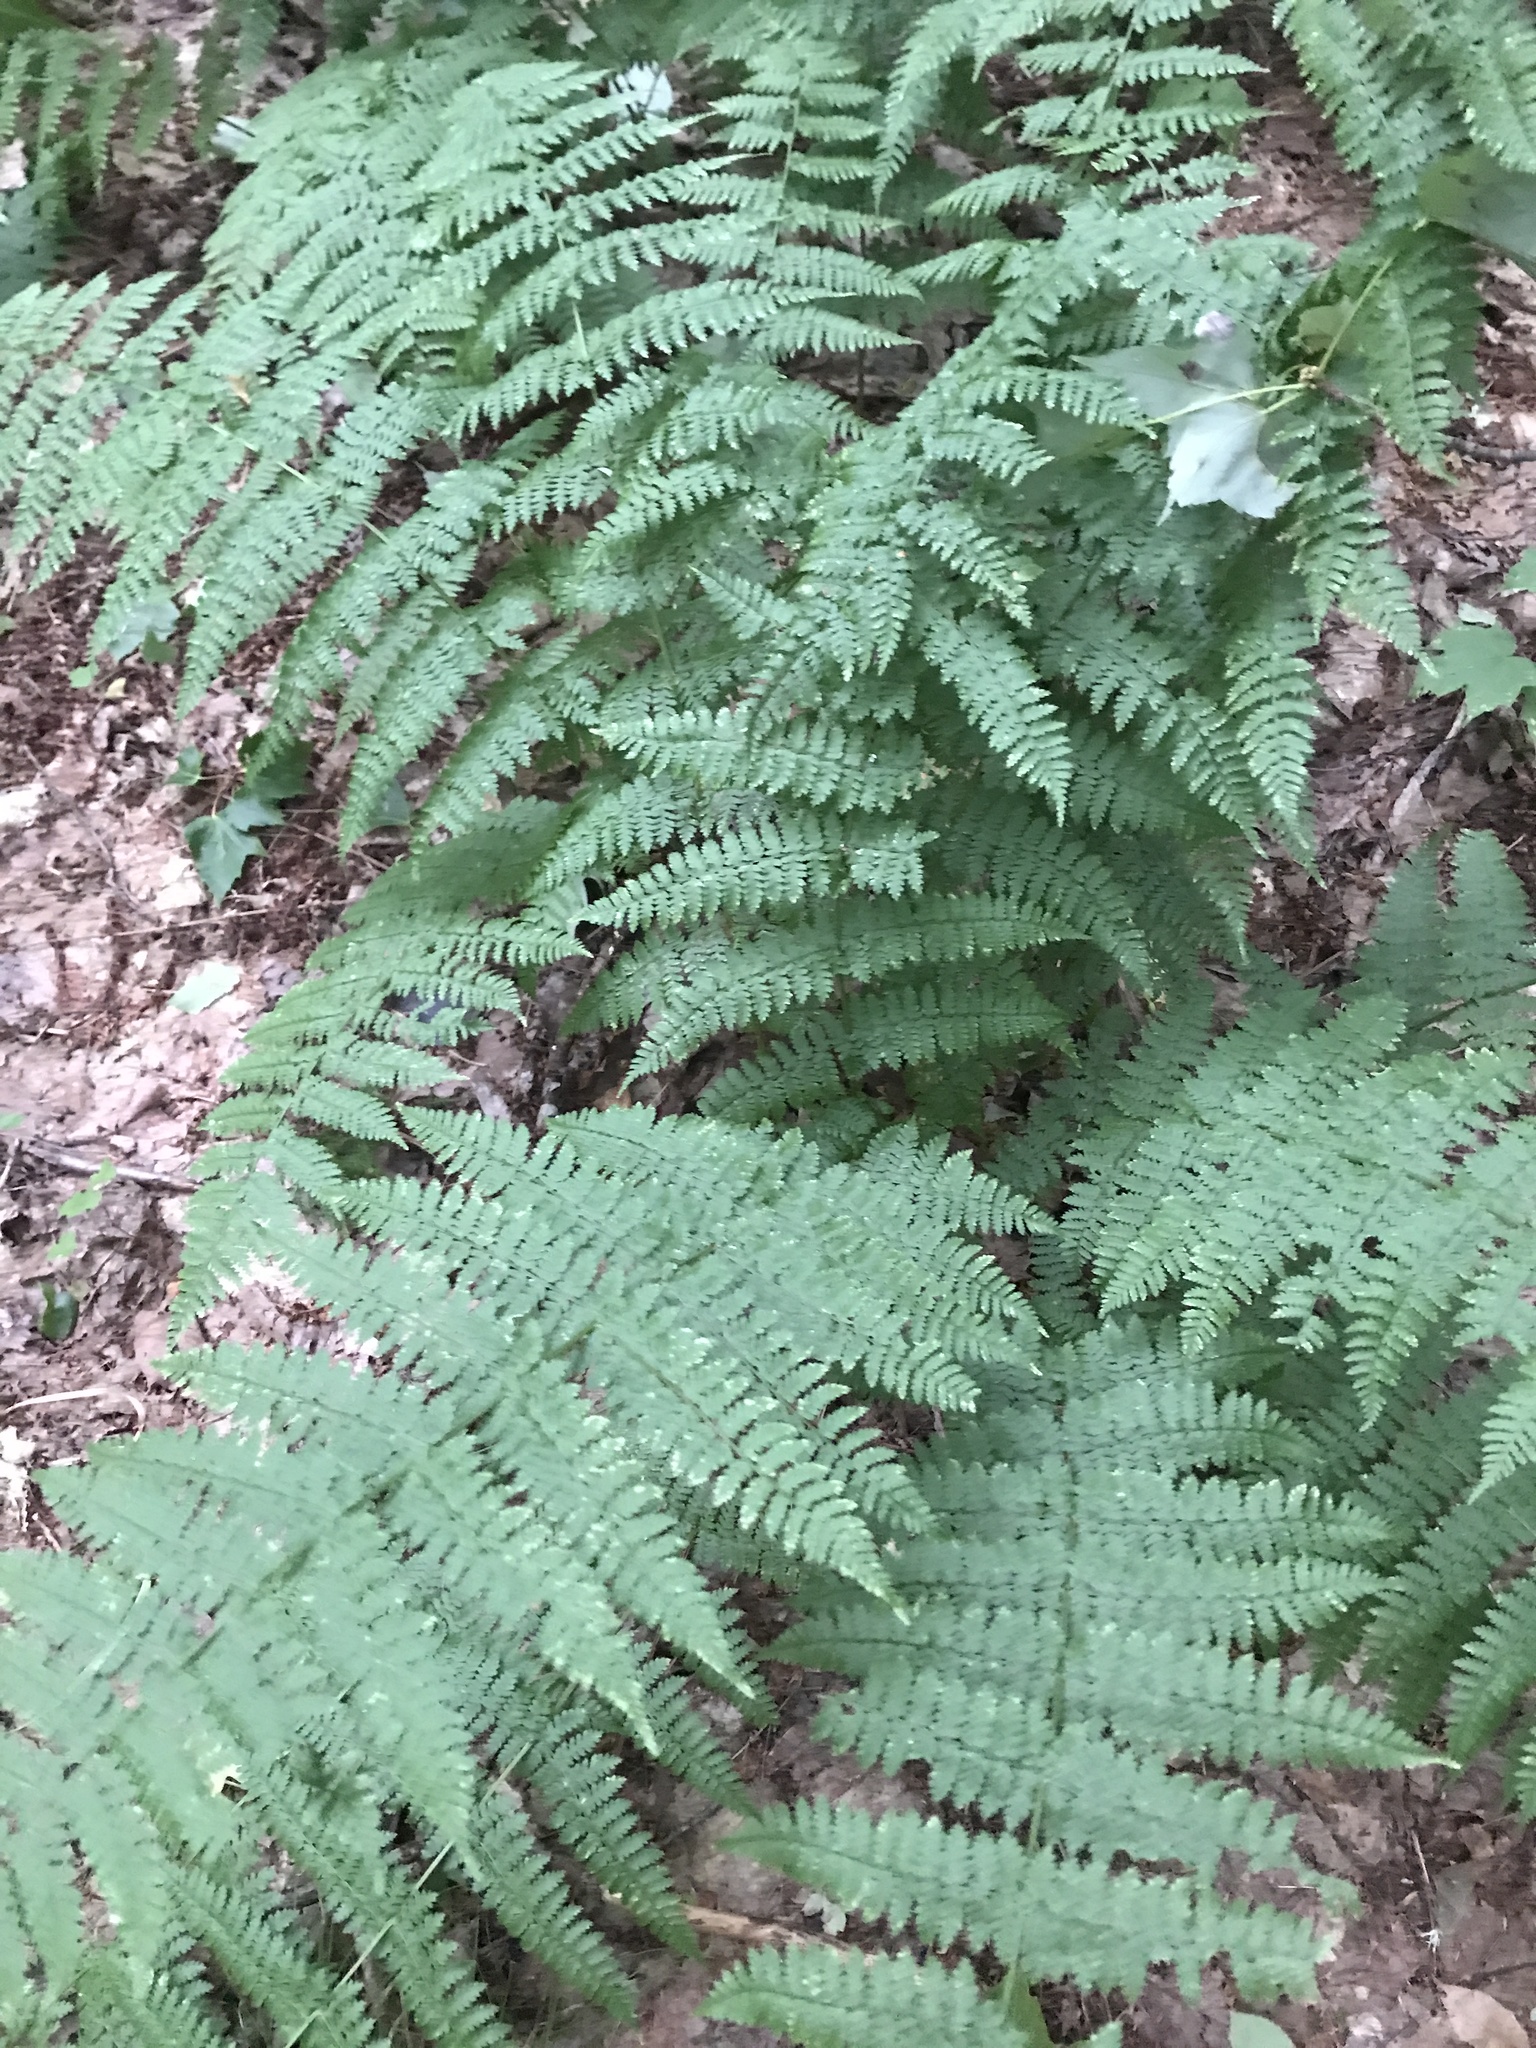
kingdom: Plantae
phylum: Tracheophyta
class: Polypodiopsida
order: Polypodiales
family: Dryopteridaceae
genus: Dryopteris
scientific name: Dryopteris intermedia
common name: Evergreen wood fern
